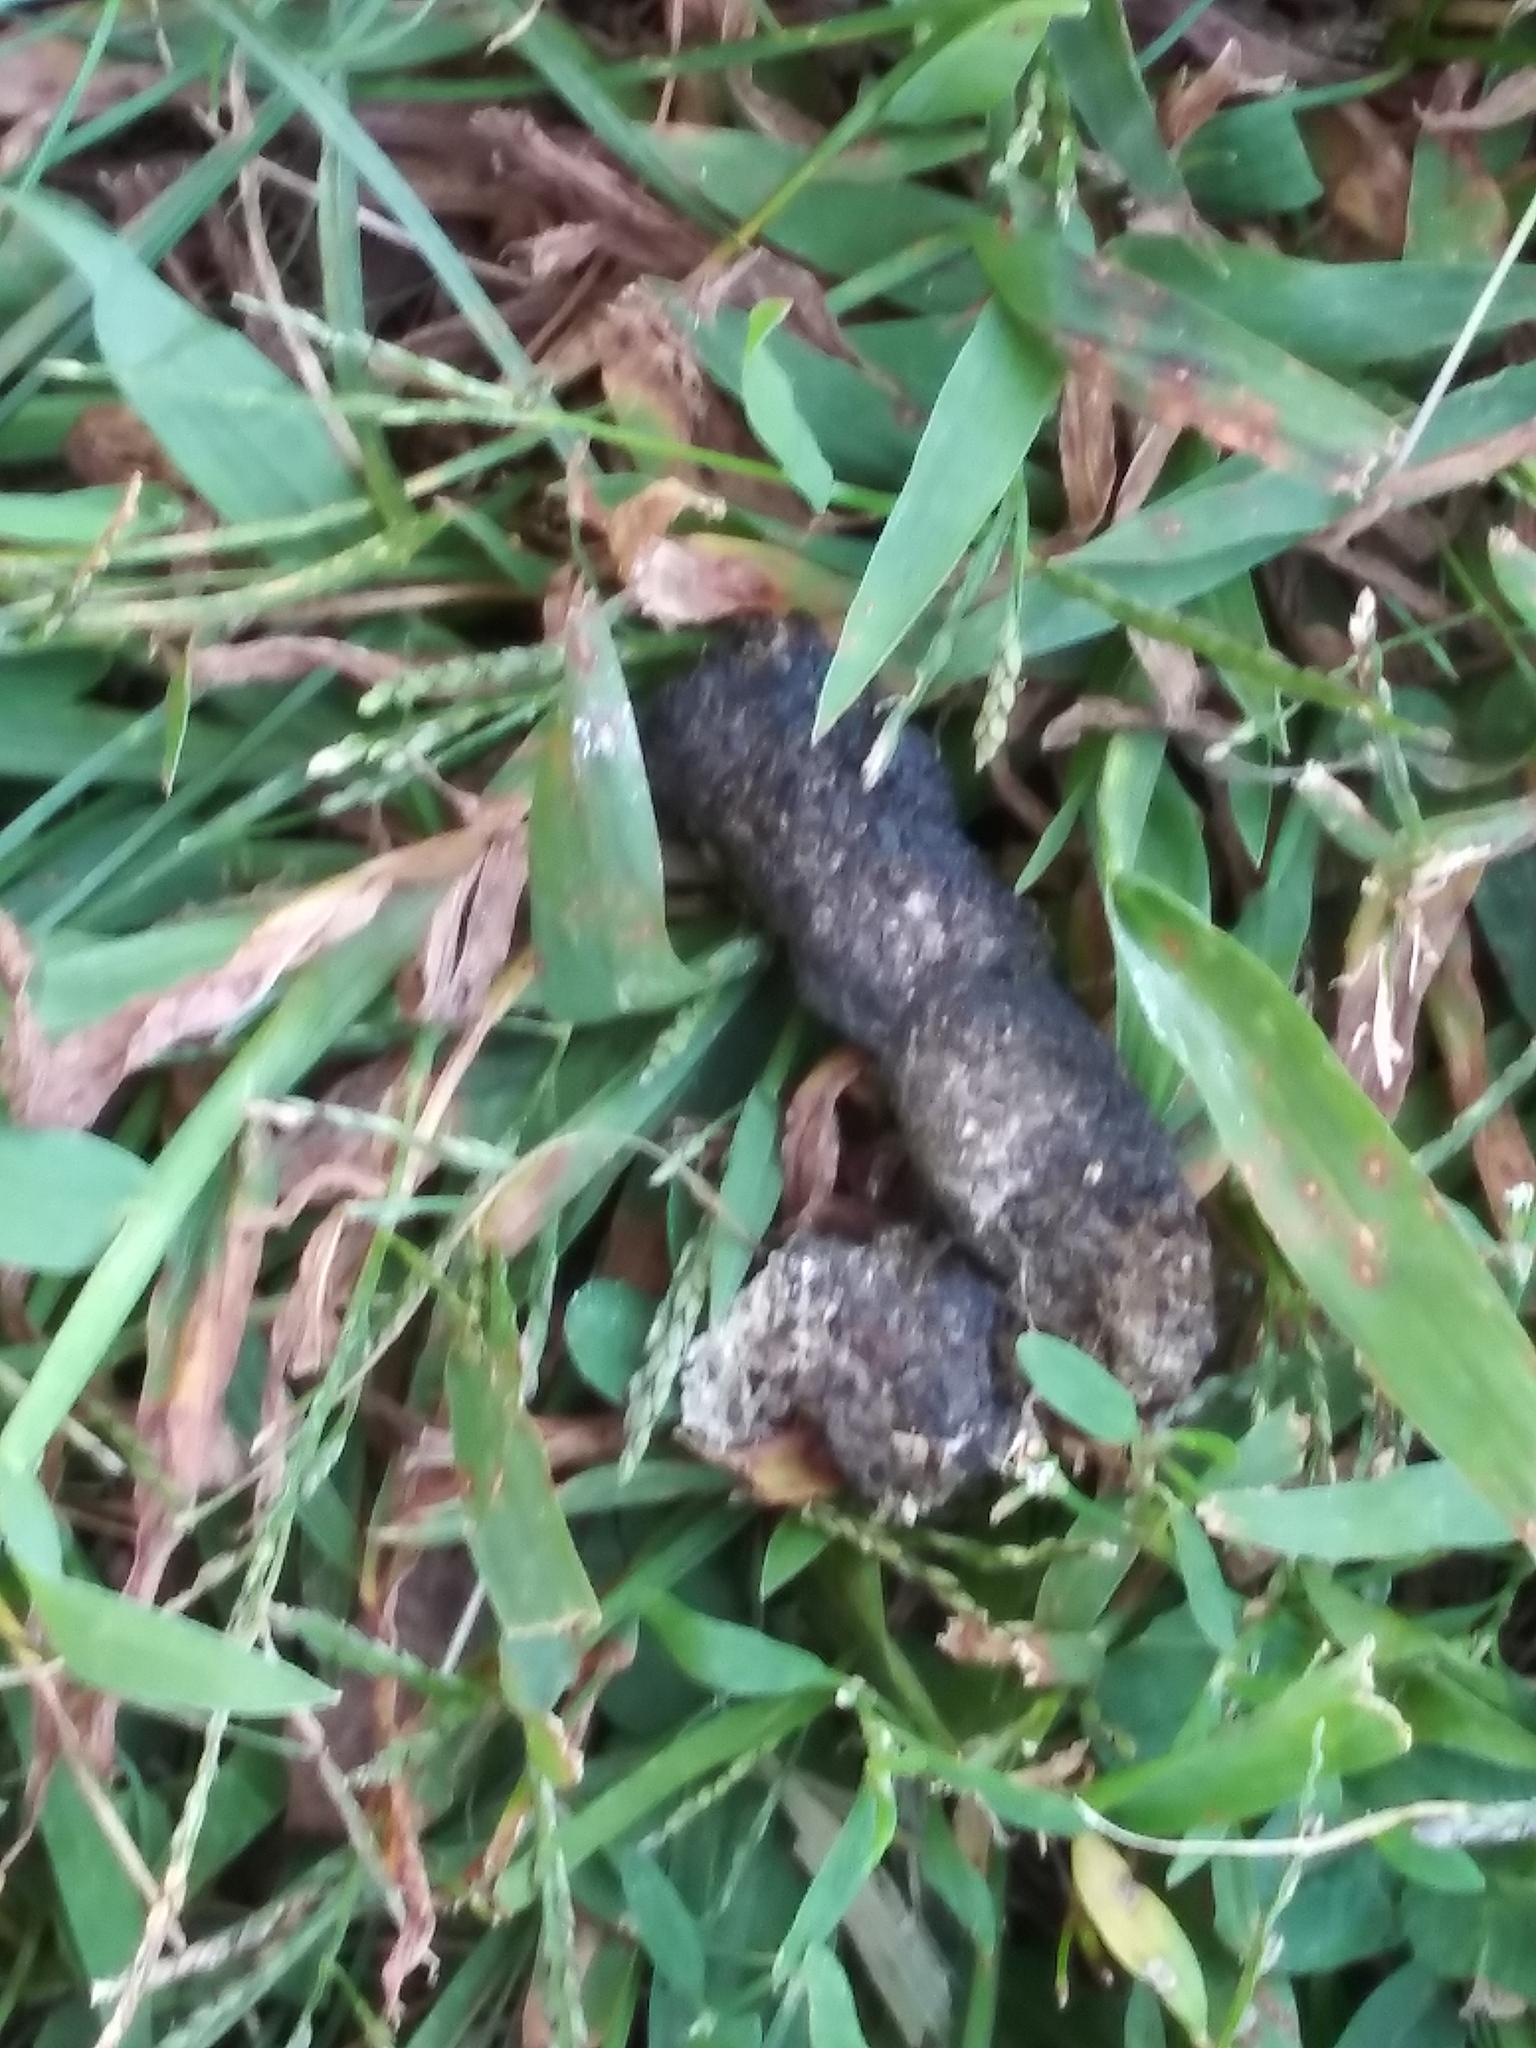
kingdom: Animalia
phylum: Chordata
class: Aves
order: Anseriformes
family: Anatidae
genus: Branta
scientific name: Branta canadensis
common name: Canada goose
